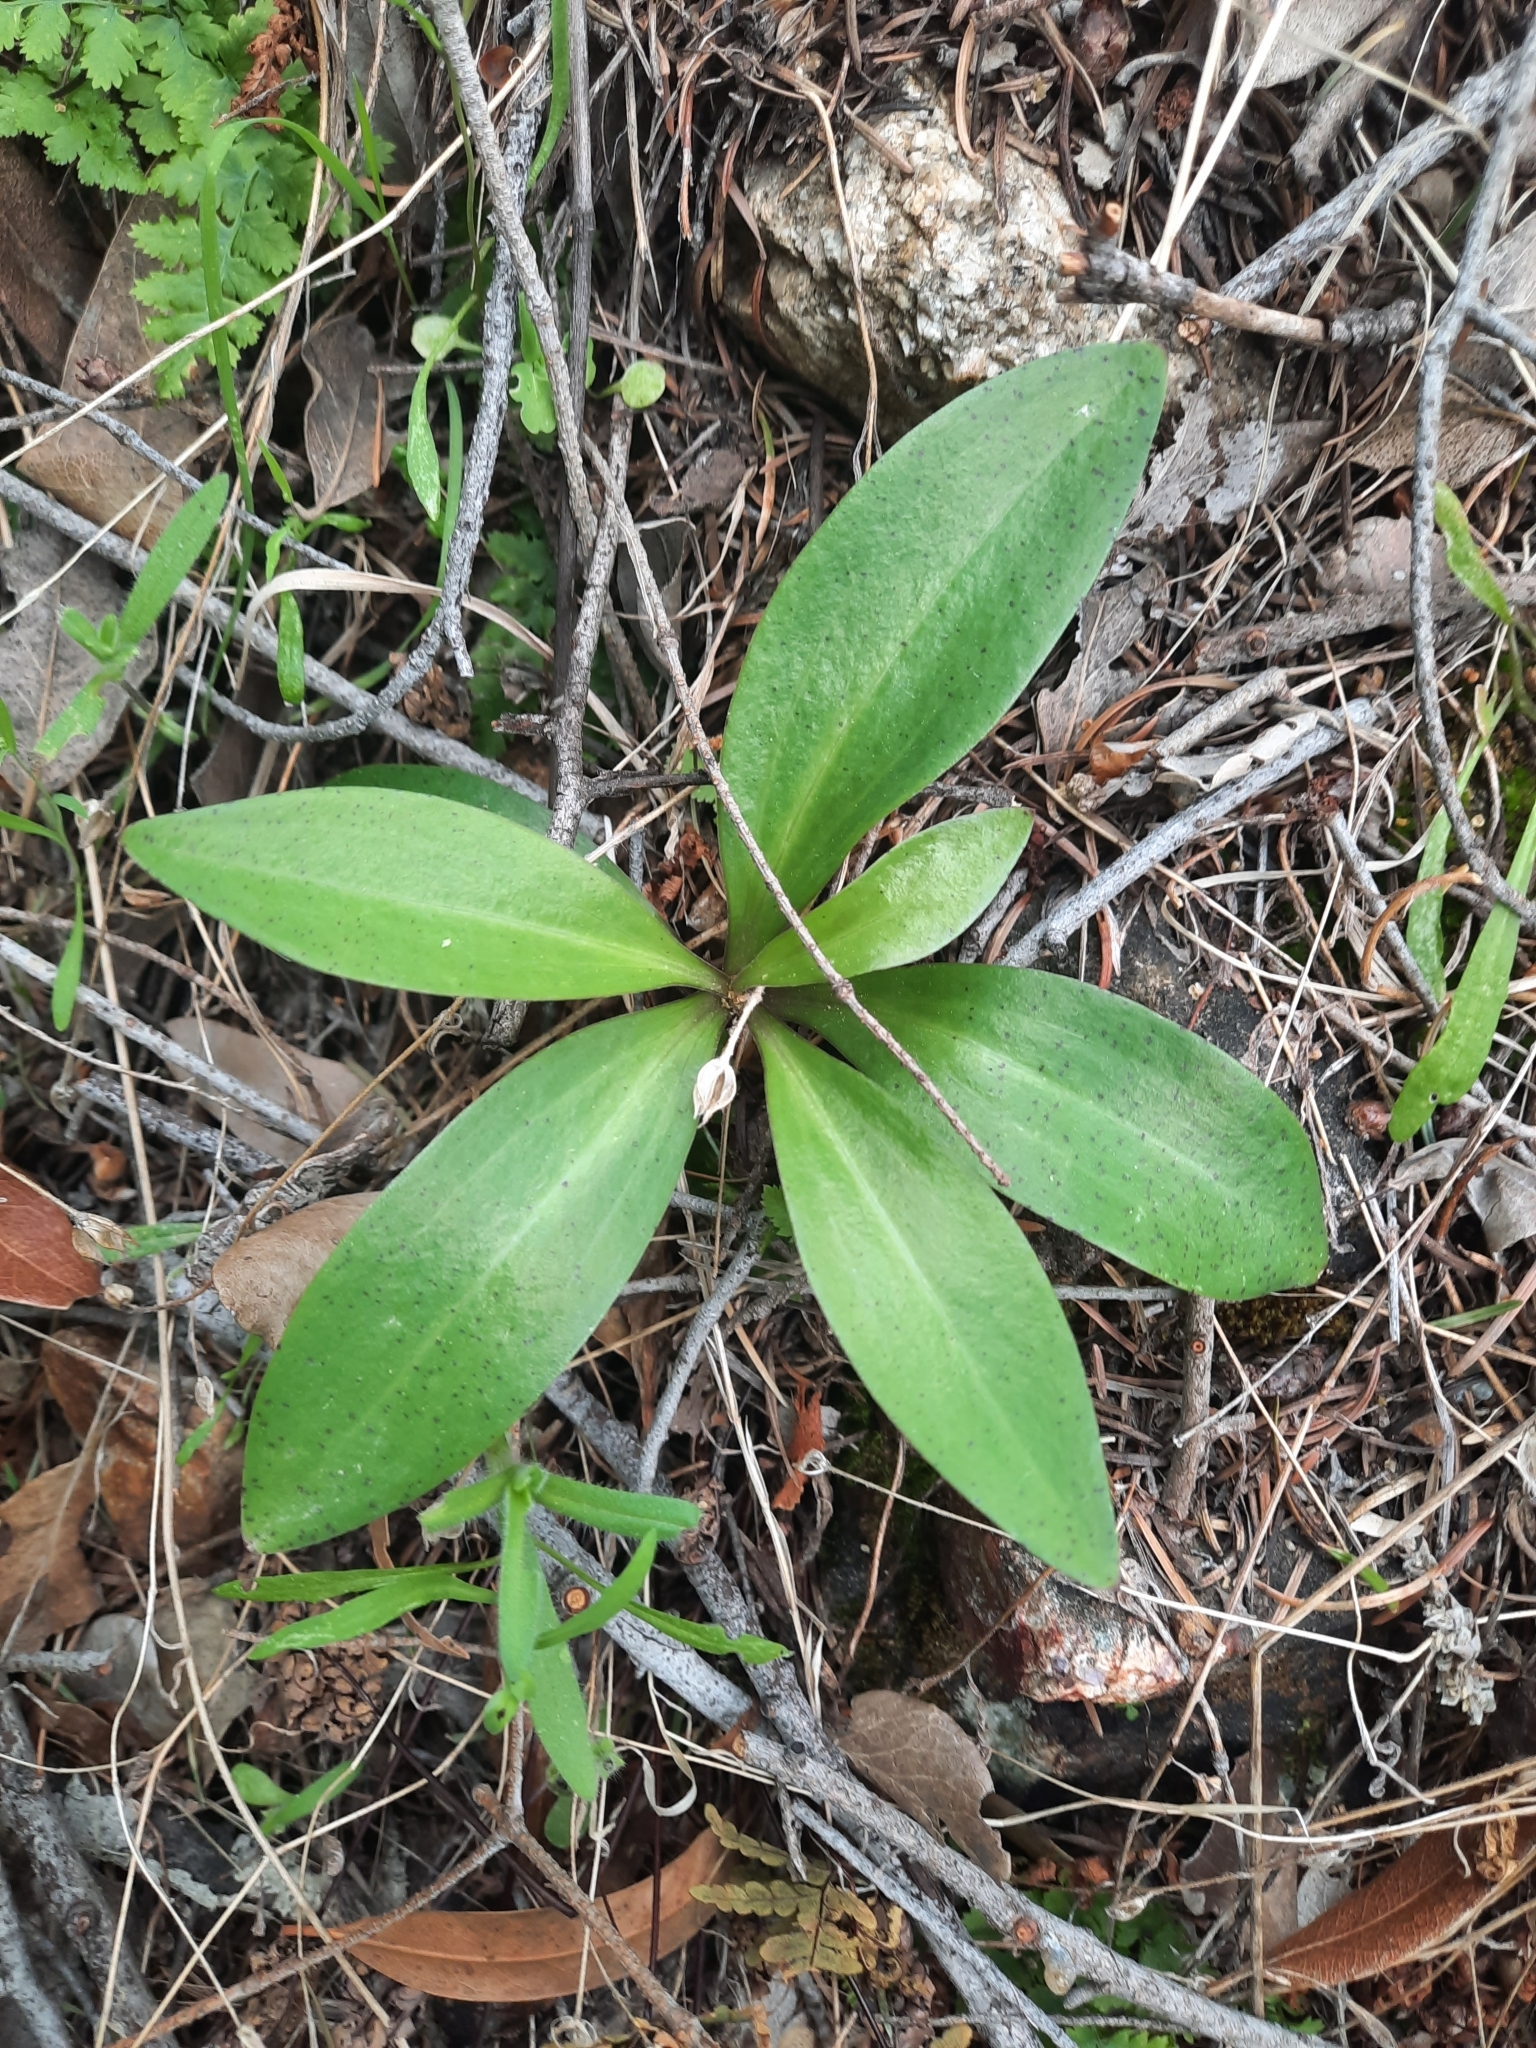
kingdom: Plantae
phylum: Tracheophyta
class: Liliopsida
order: Liliales
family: Liliaceae
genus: Lilium
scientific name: Lilium humboldtii
